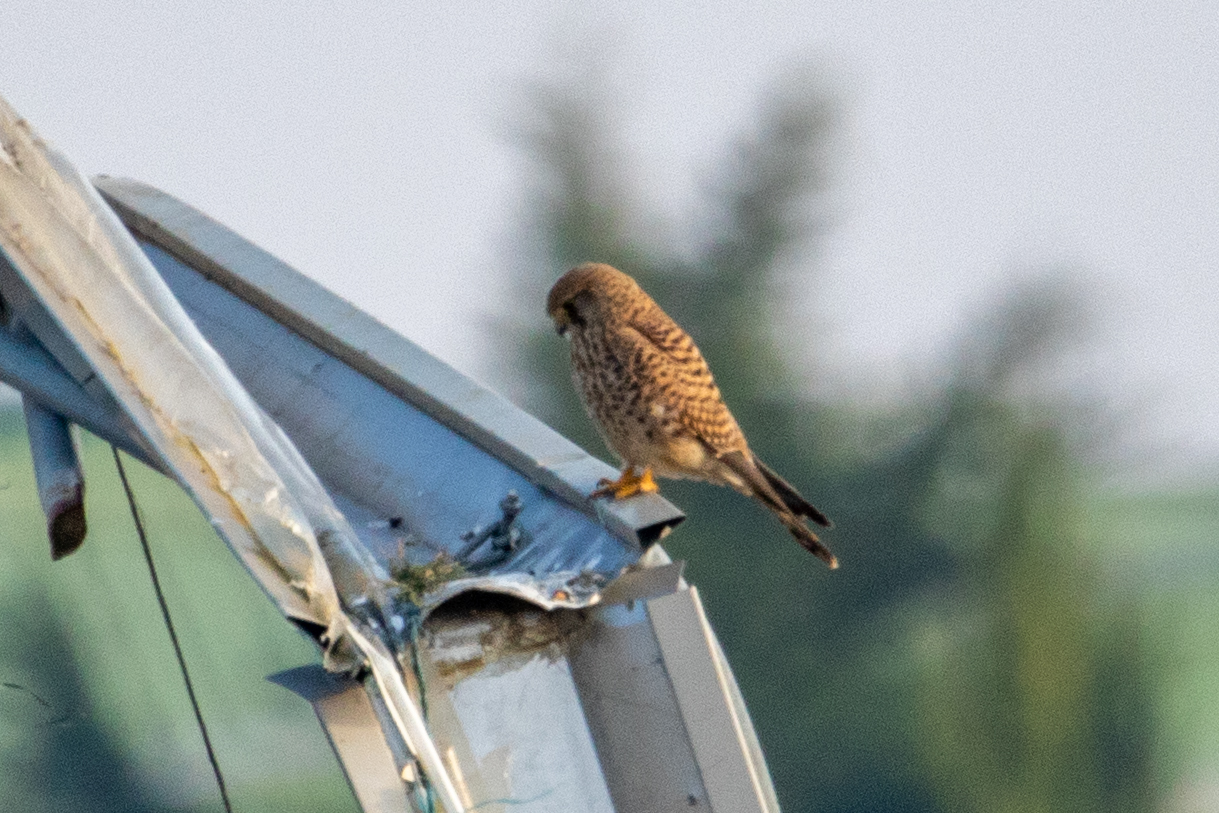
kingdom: Animalia
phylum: Chordata
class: Aves
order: Falconiformes
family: Falconidae
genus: Falco
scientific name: Falco tinnunculus
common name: Common kestrel
